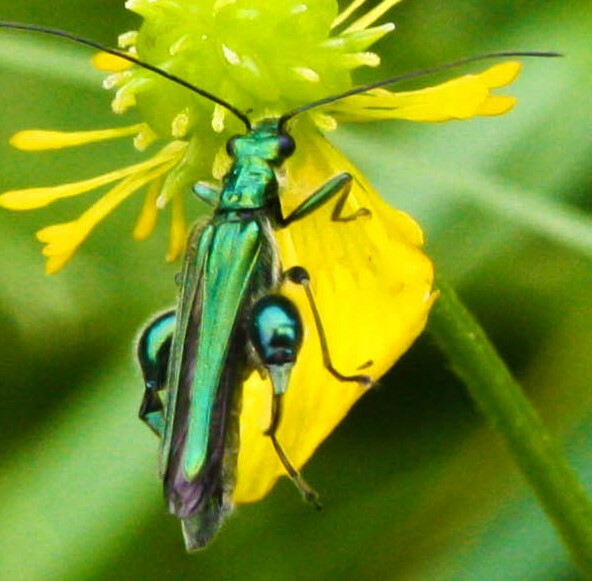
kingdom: Animalia
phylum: Arthropoda
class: Insecta
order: Coleoptera
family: Oedemeridae
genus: Oedemera
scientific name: Oedemera nobilis
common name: Swollen-thighed beetle
